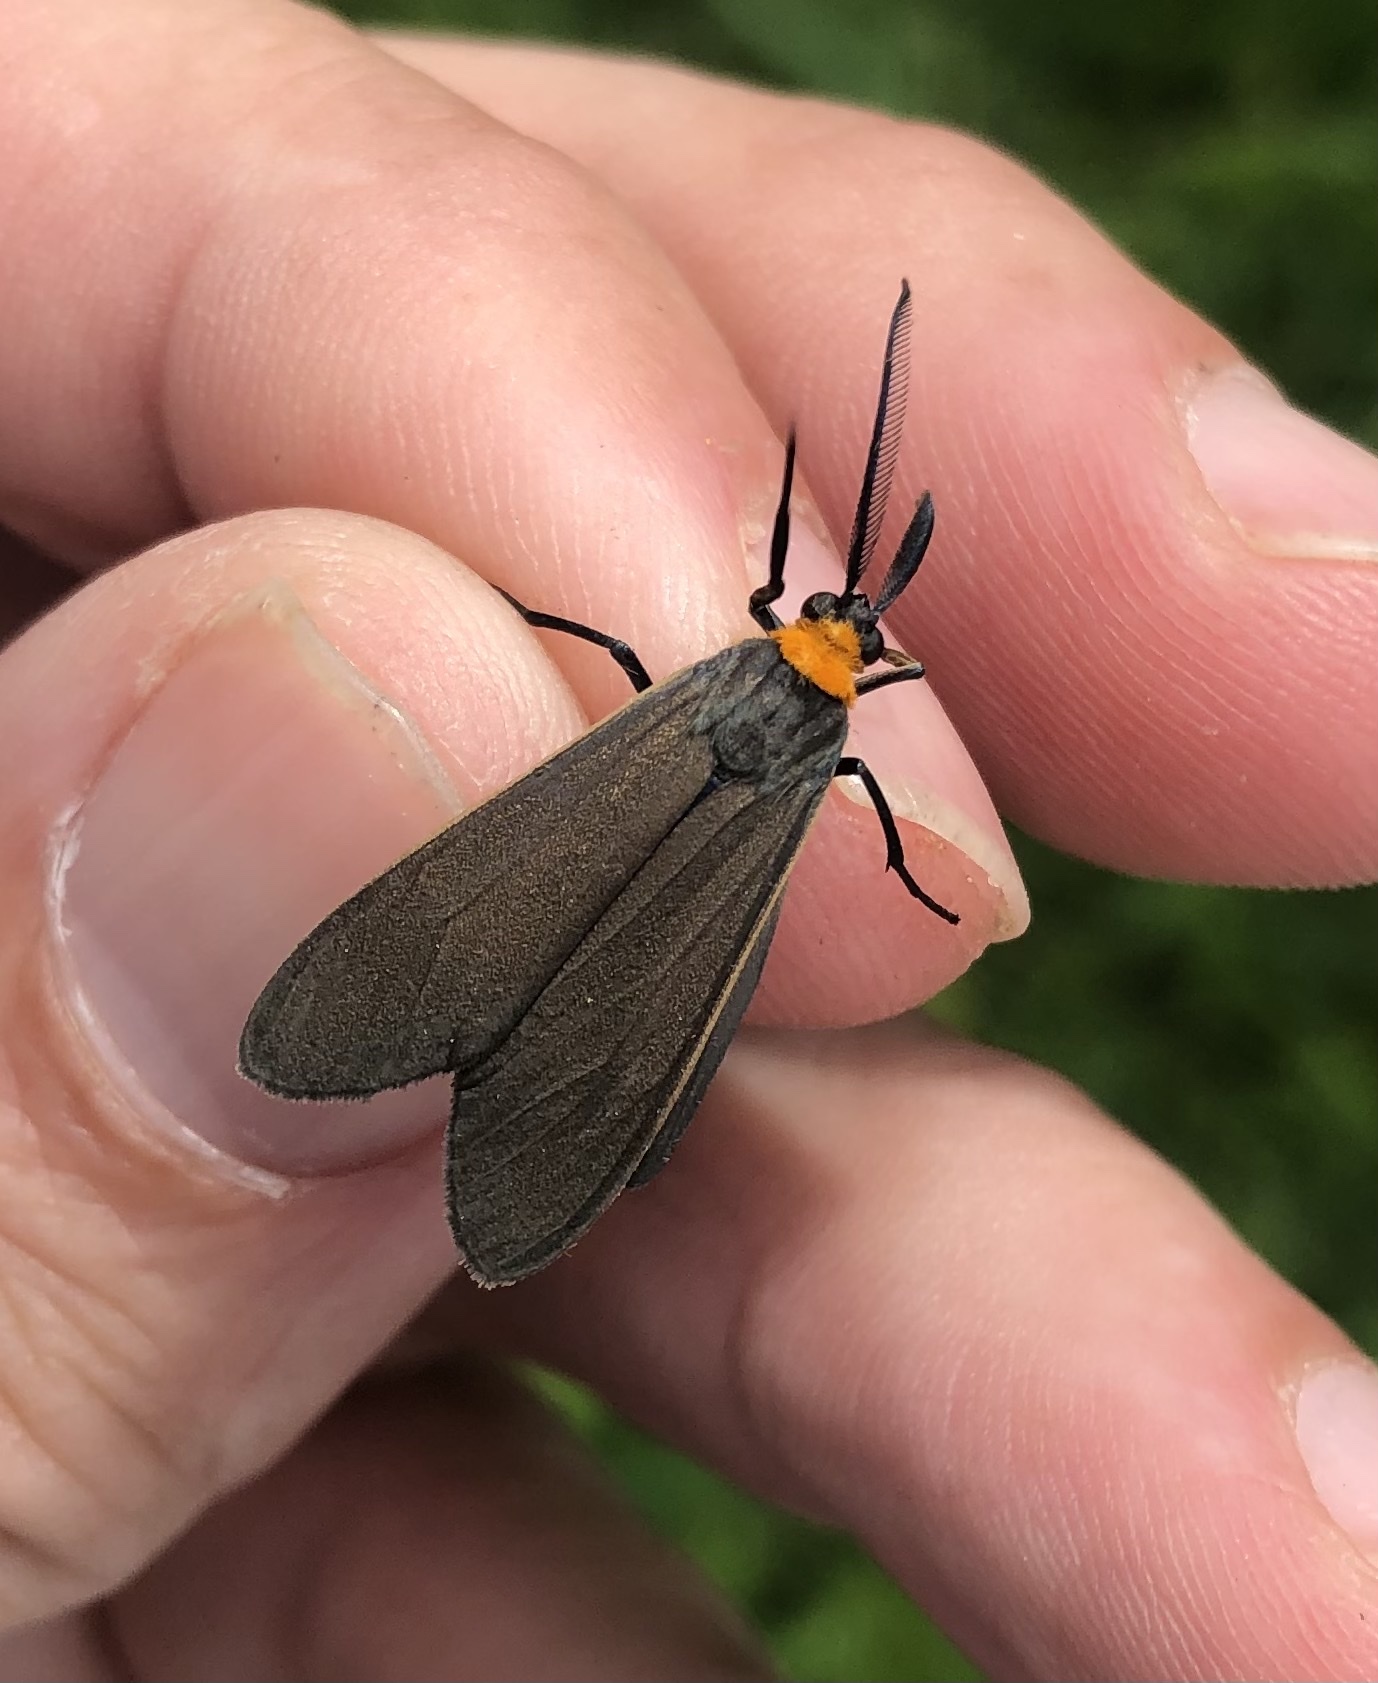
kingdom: Animalia
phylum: Arthropoda
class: Insecta
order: Lepidoptera
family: Erebidae
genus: Cisseps
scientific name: Cisseps fulvicollis
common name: Yellow-collared scape moth
